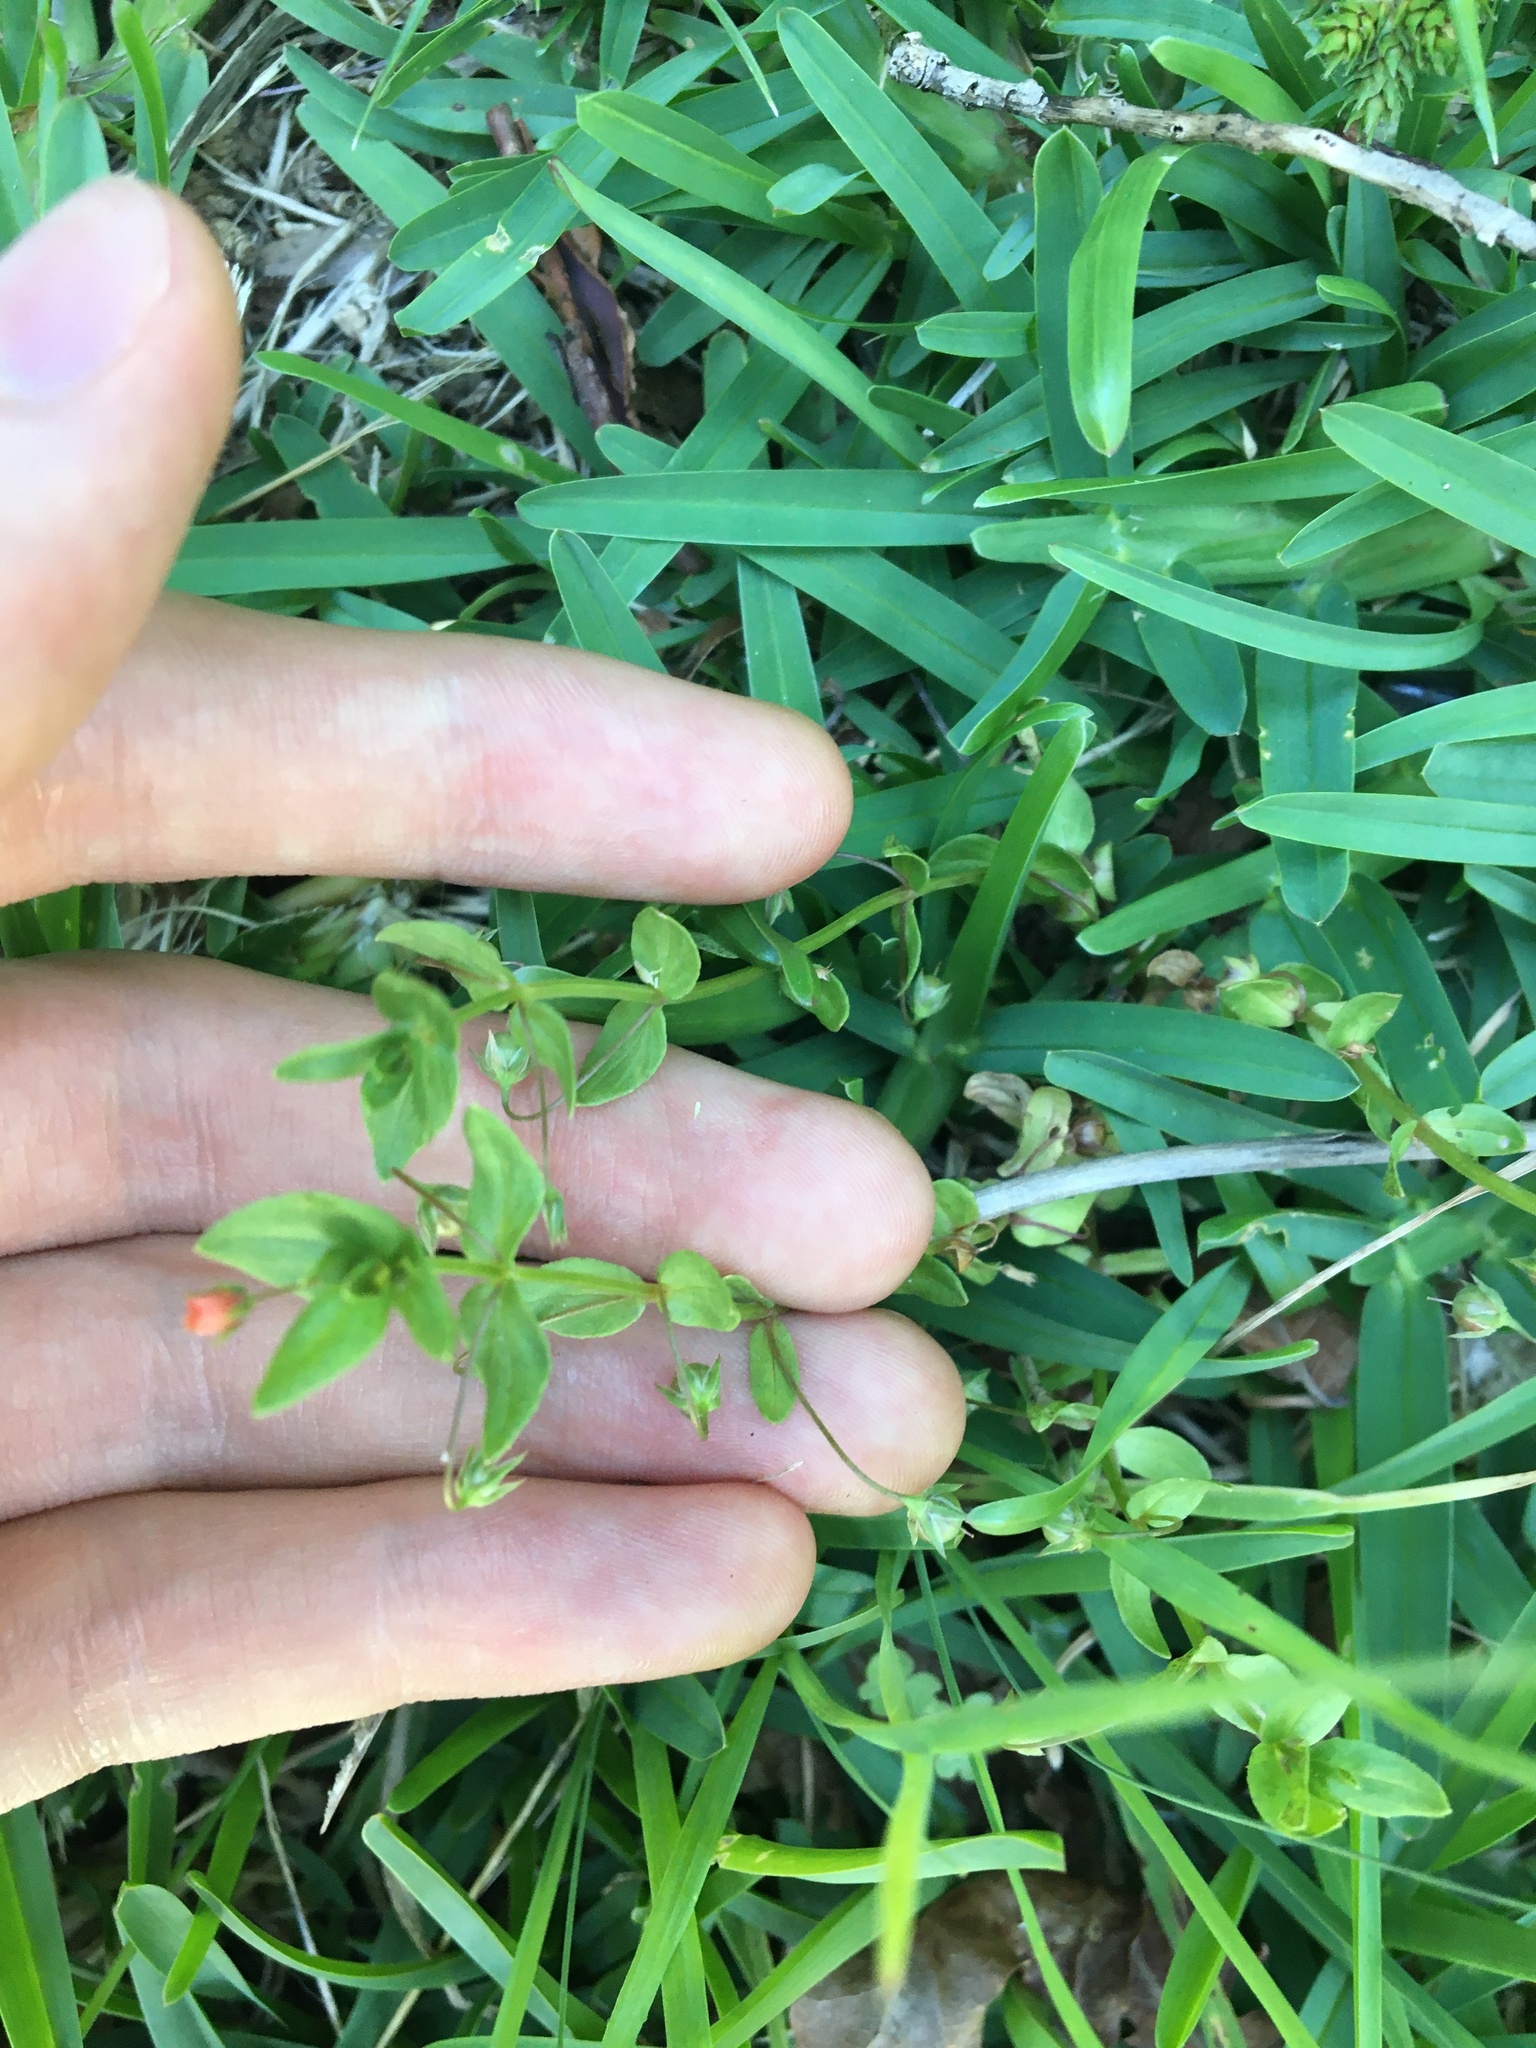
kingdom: Plantae
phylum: Tracheophyta
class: Magnoliopsida
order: Ericales
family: Primulaceae
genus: Lysimachia
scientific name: Lysimachia arvensis
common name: Scarlet pimpernel
